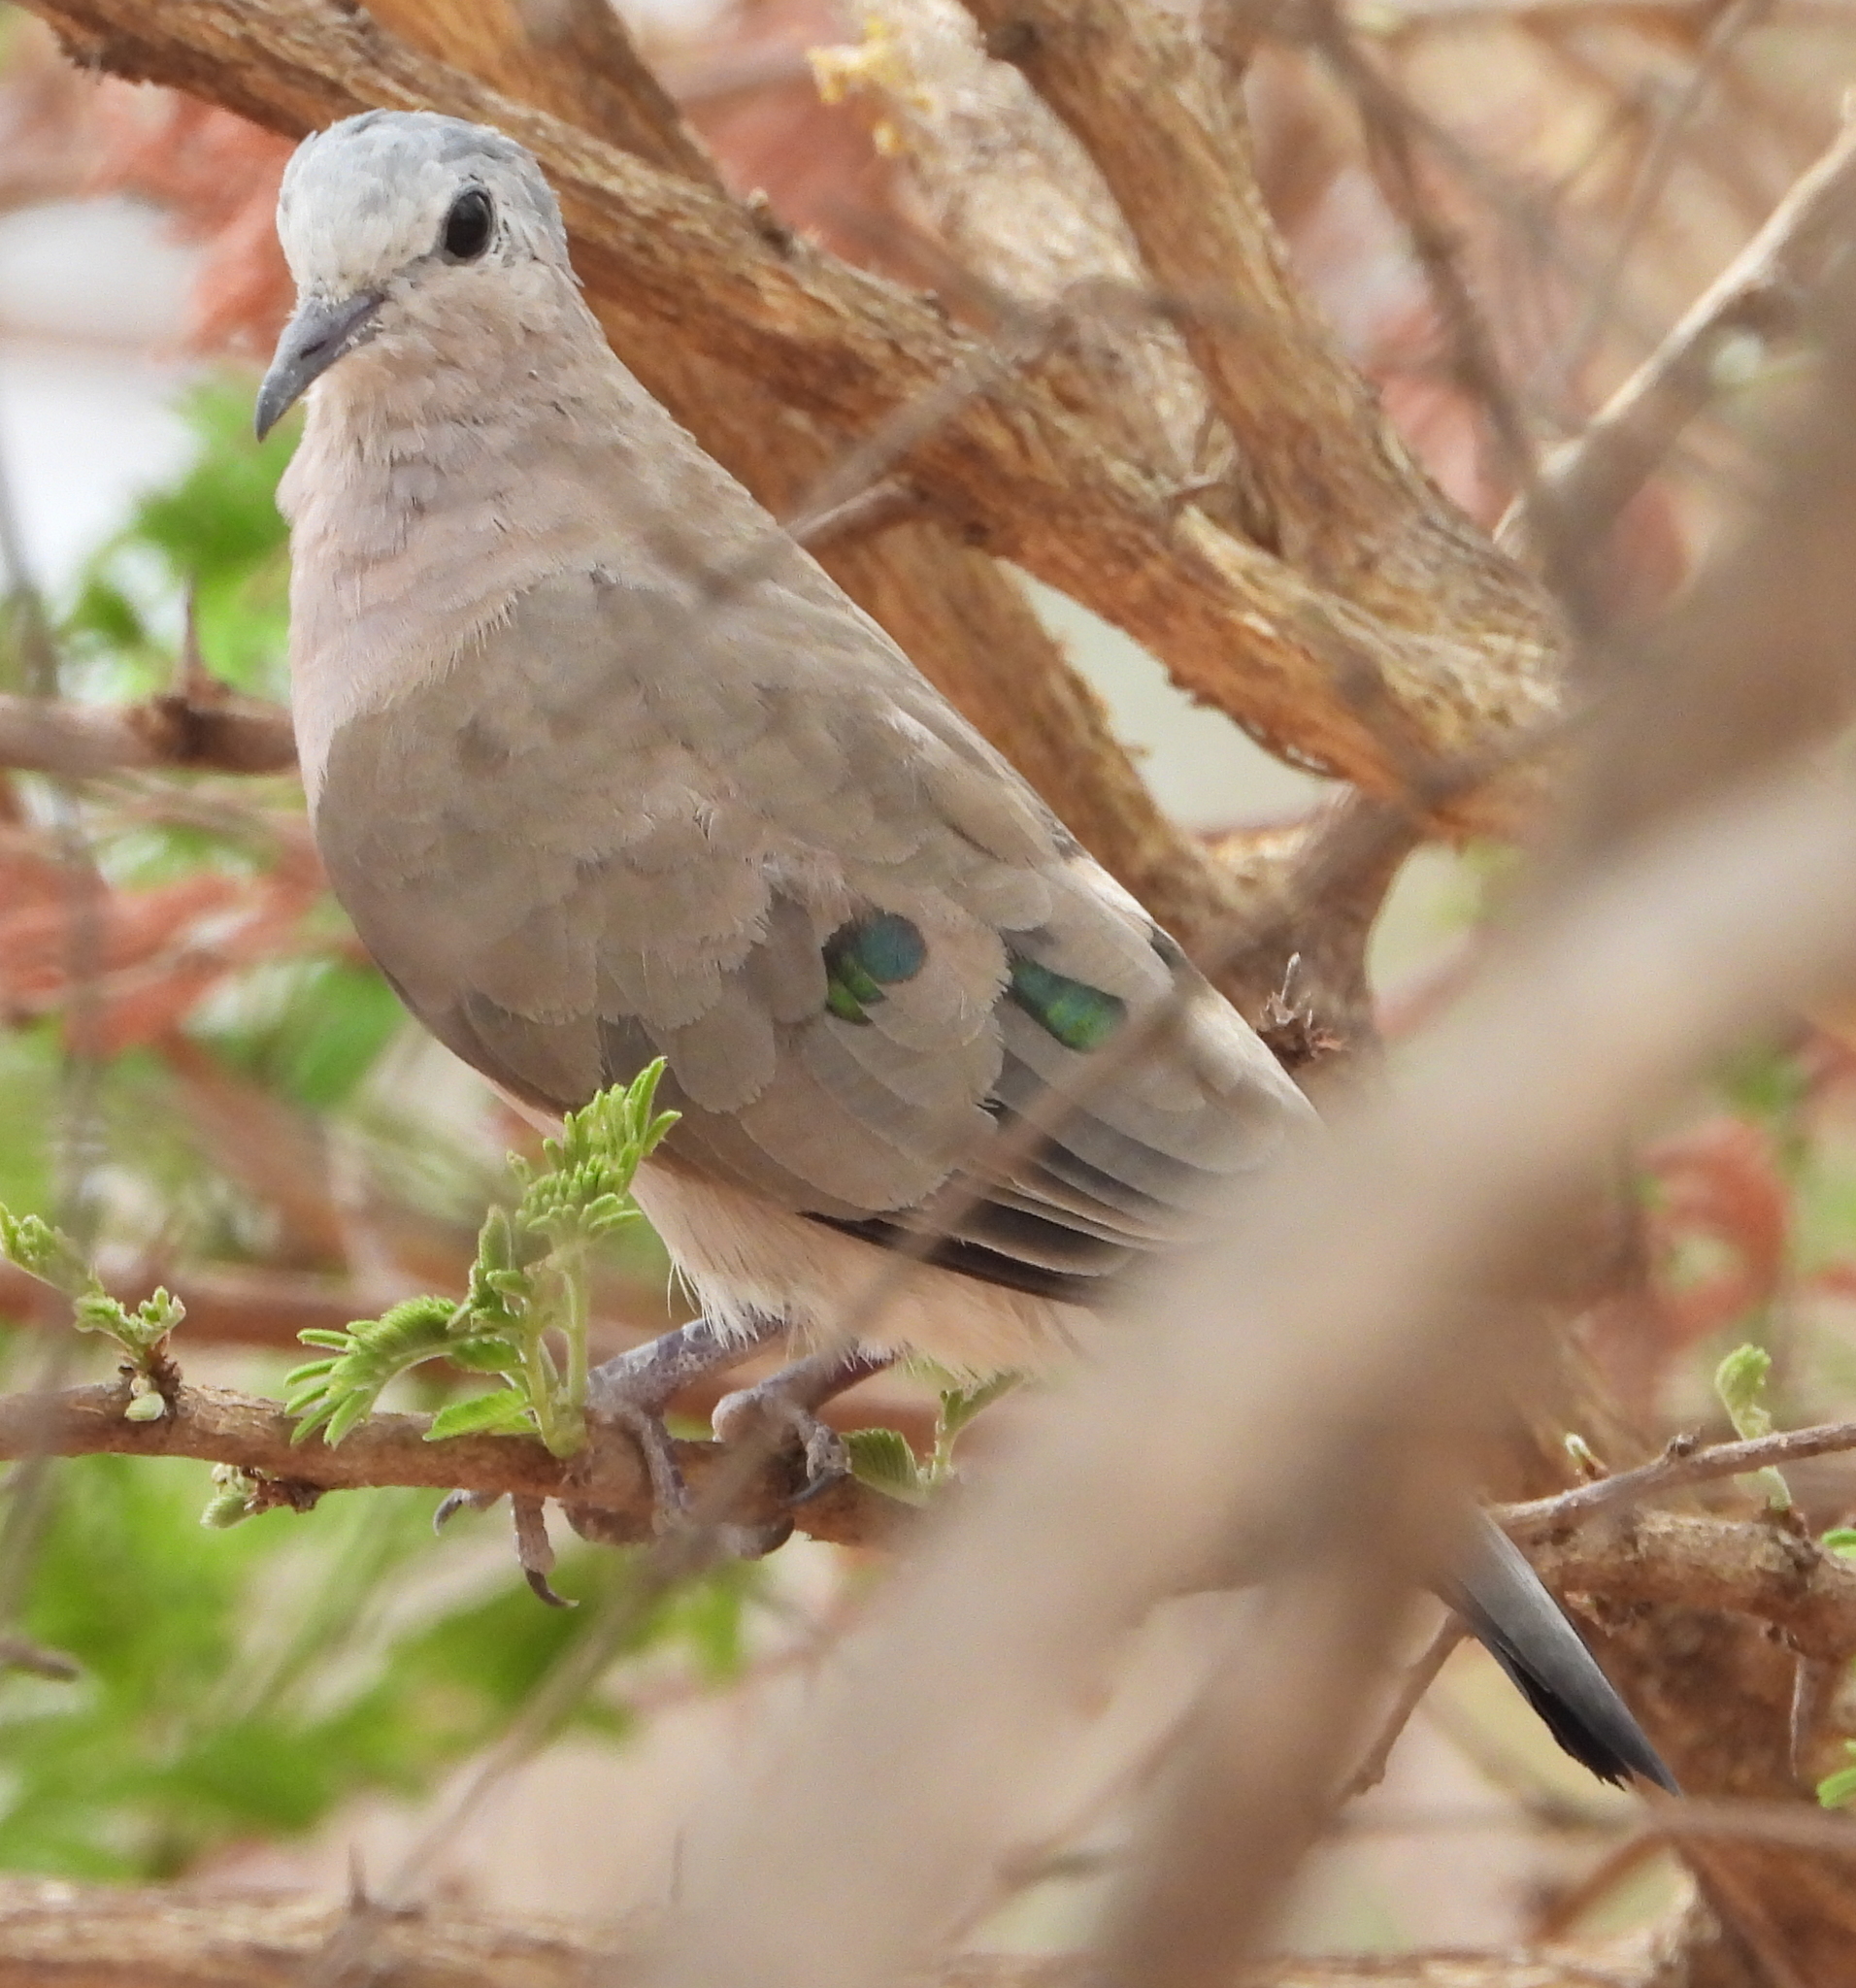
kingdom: Animalia
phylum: Chordata
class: Aves
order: Columbiformes
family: Columbidae
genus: Turtur
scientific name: Turtur chalcospilos
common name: Emerald-spotted wood dove
